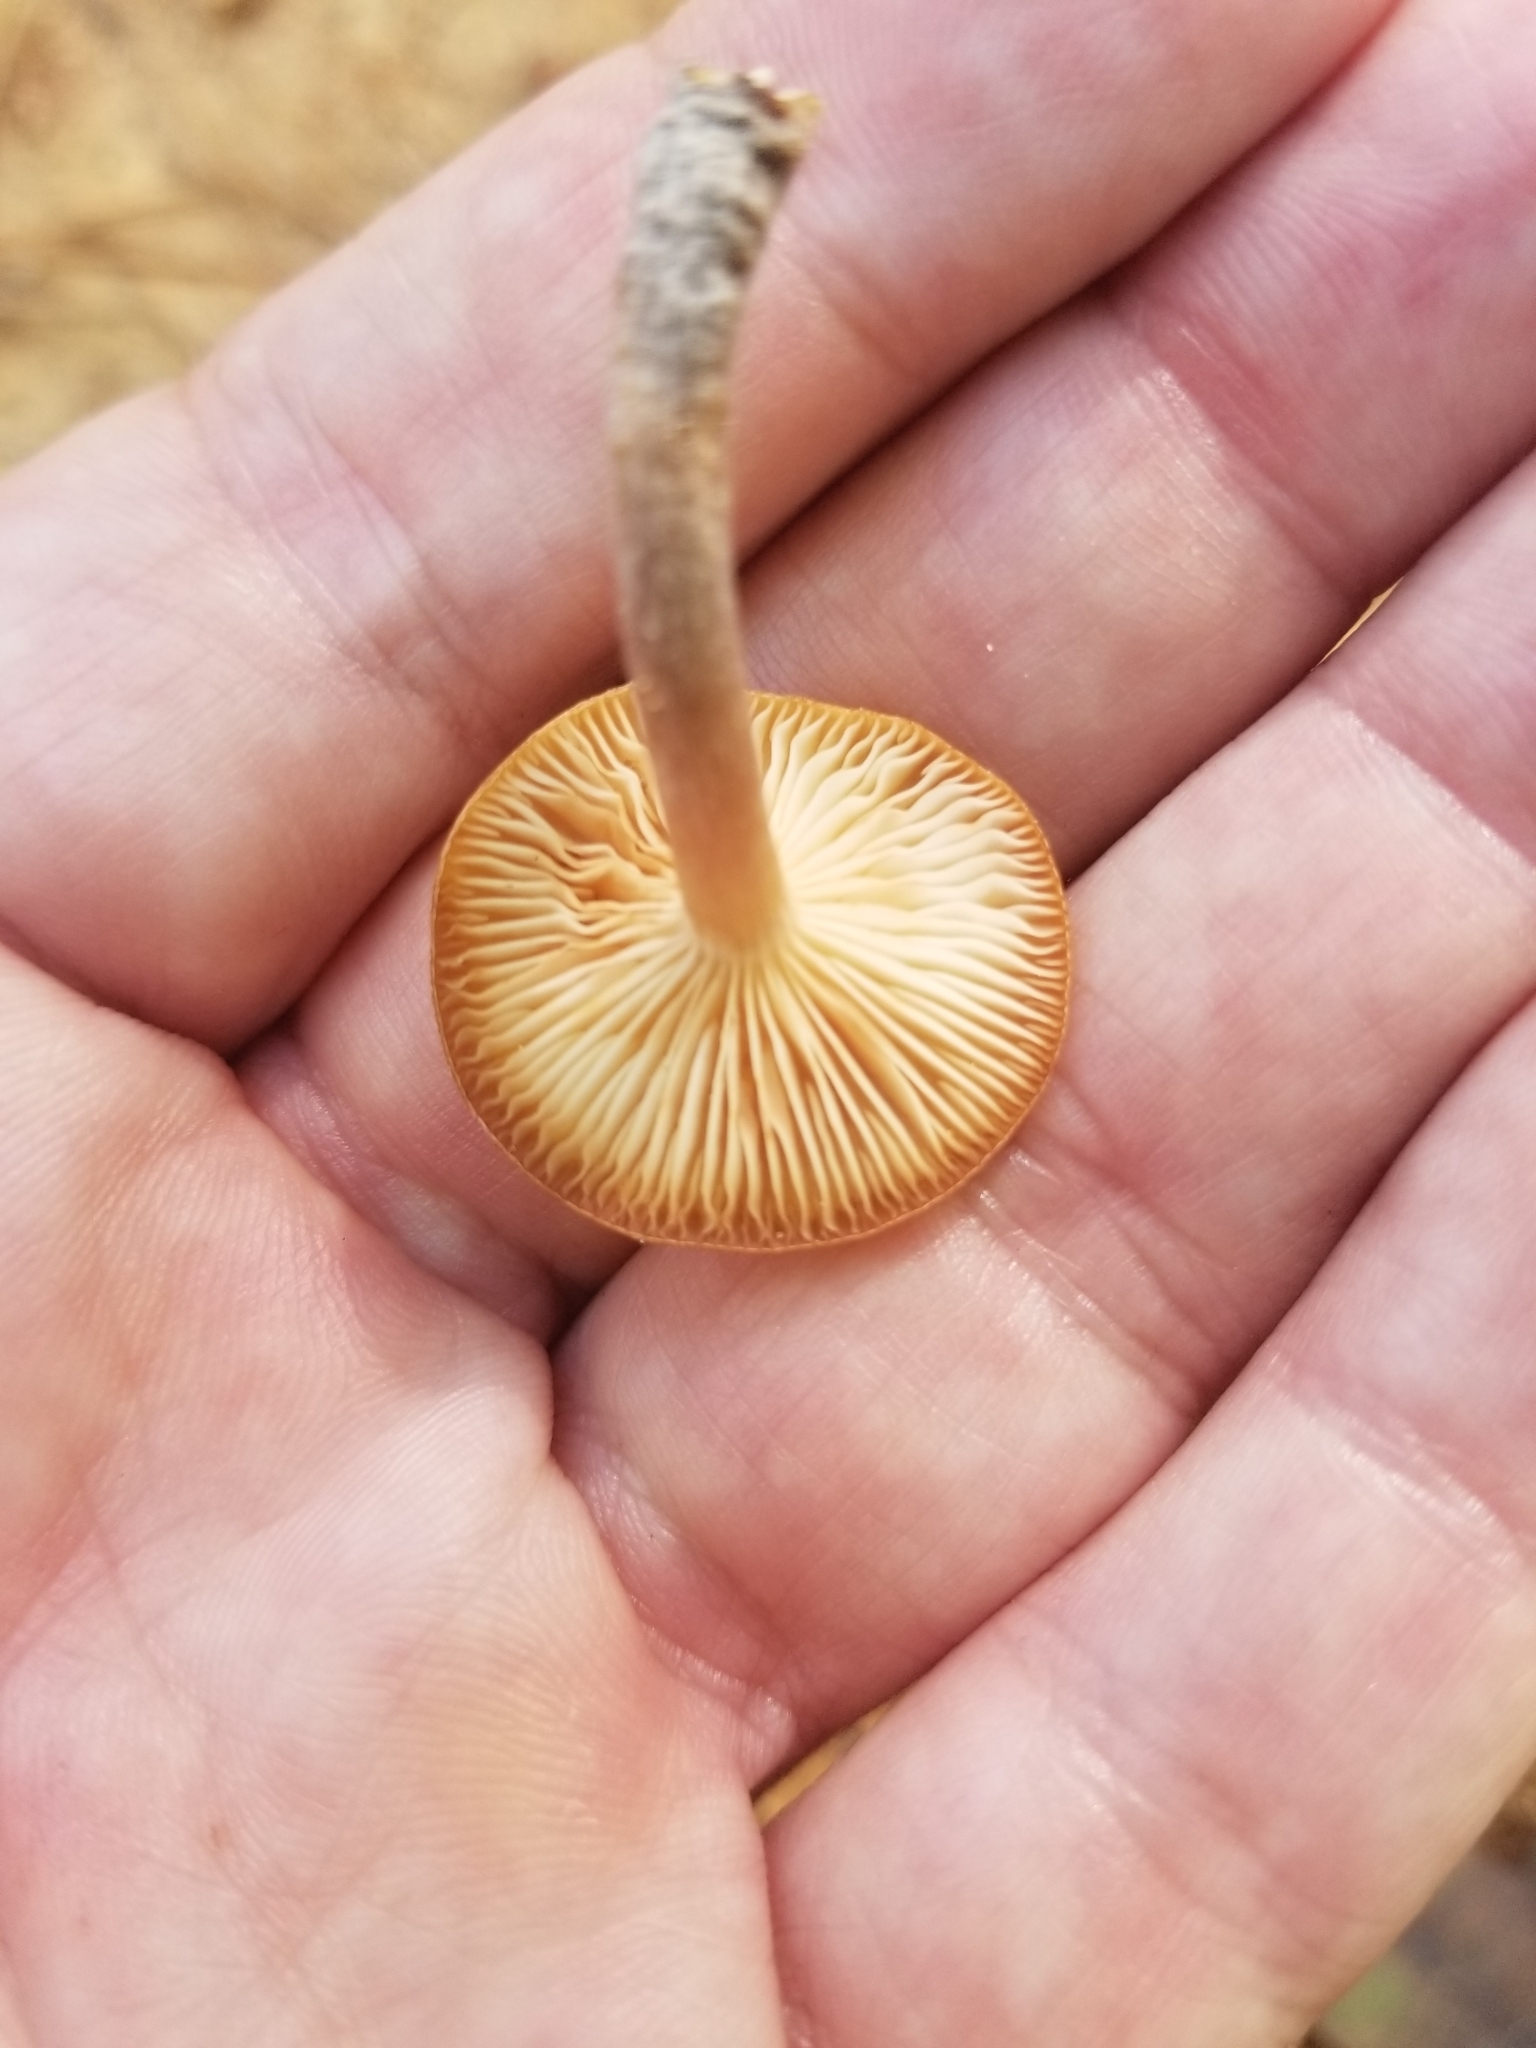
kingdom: Fungi
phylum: Basidiomycota
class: Agaricomycetes
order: Agaricales
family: Physalacriaceae
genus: Desarmillaria
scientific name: Desarmillaria caespitosa
